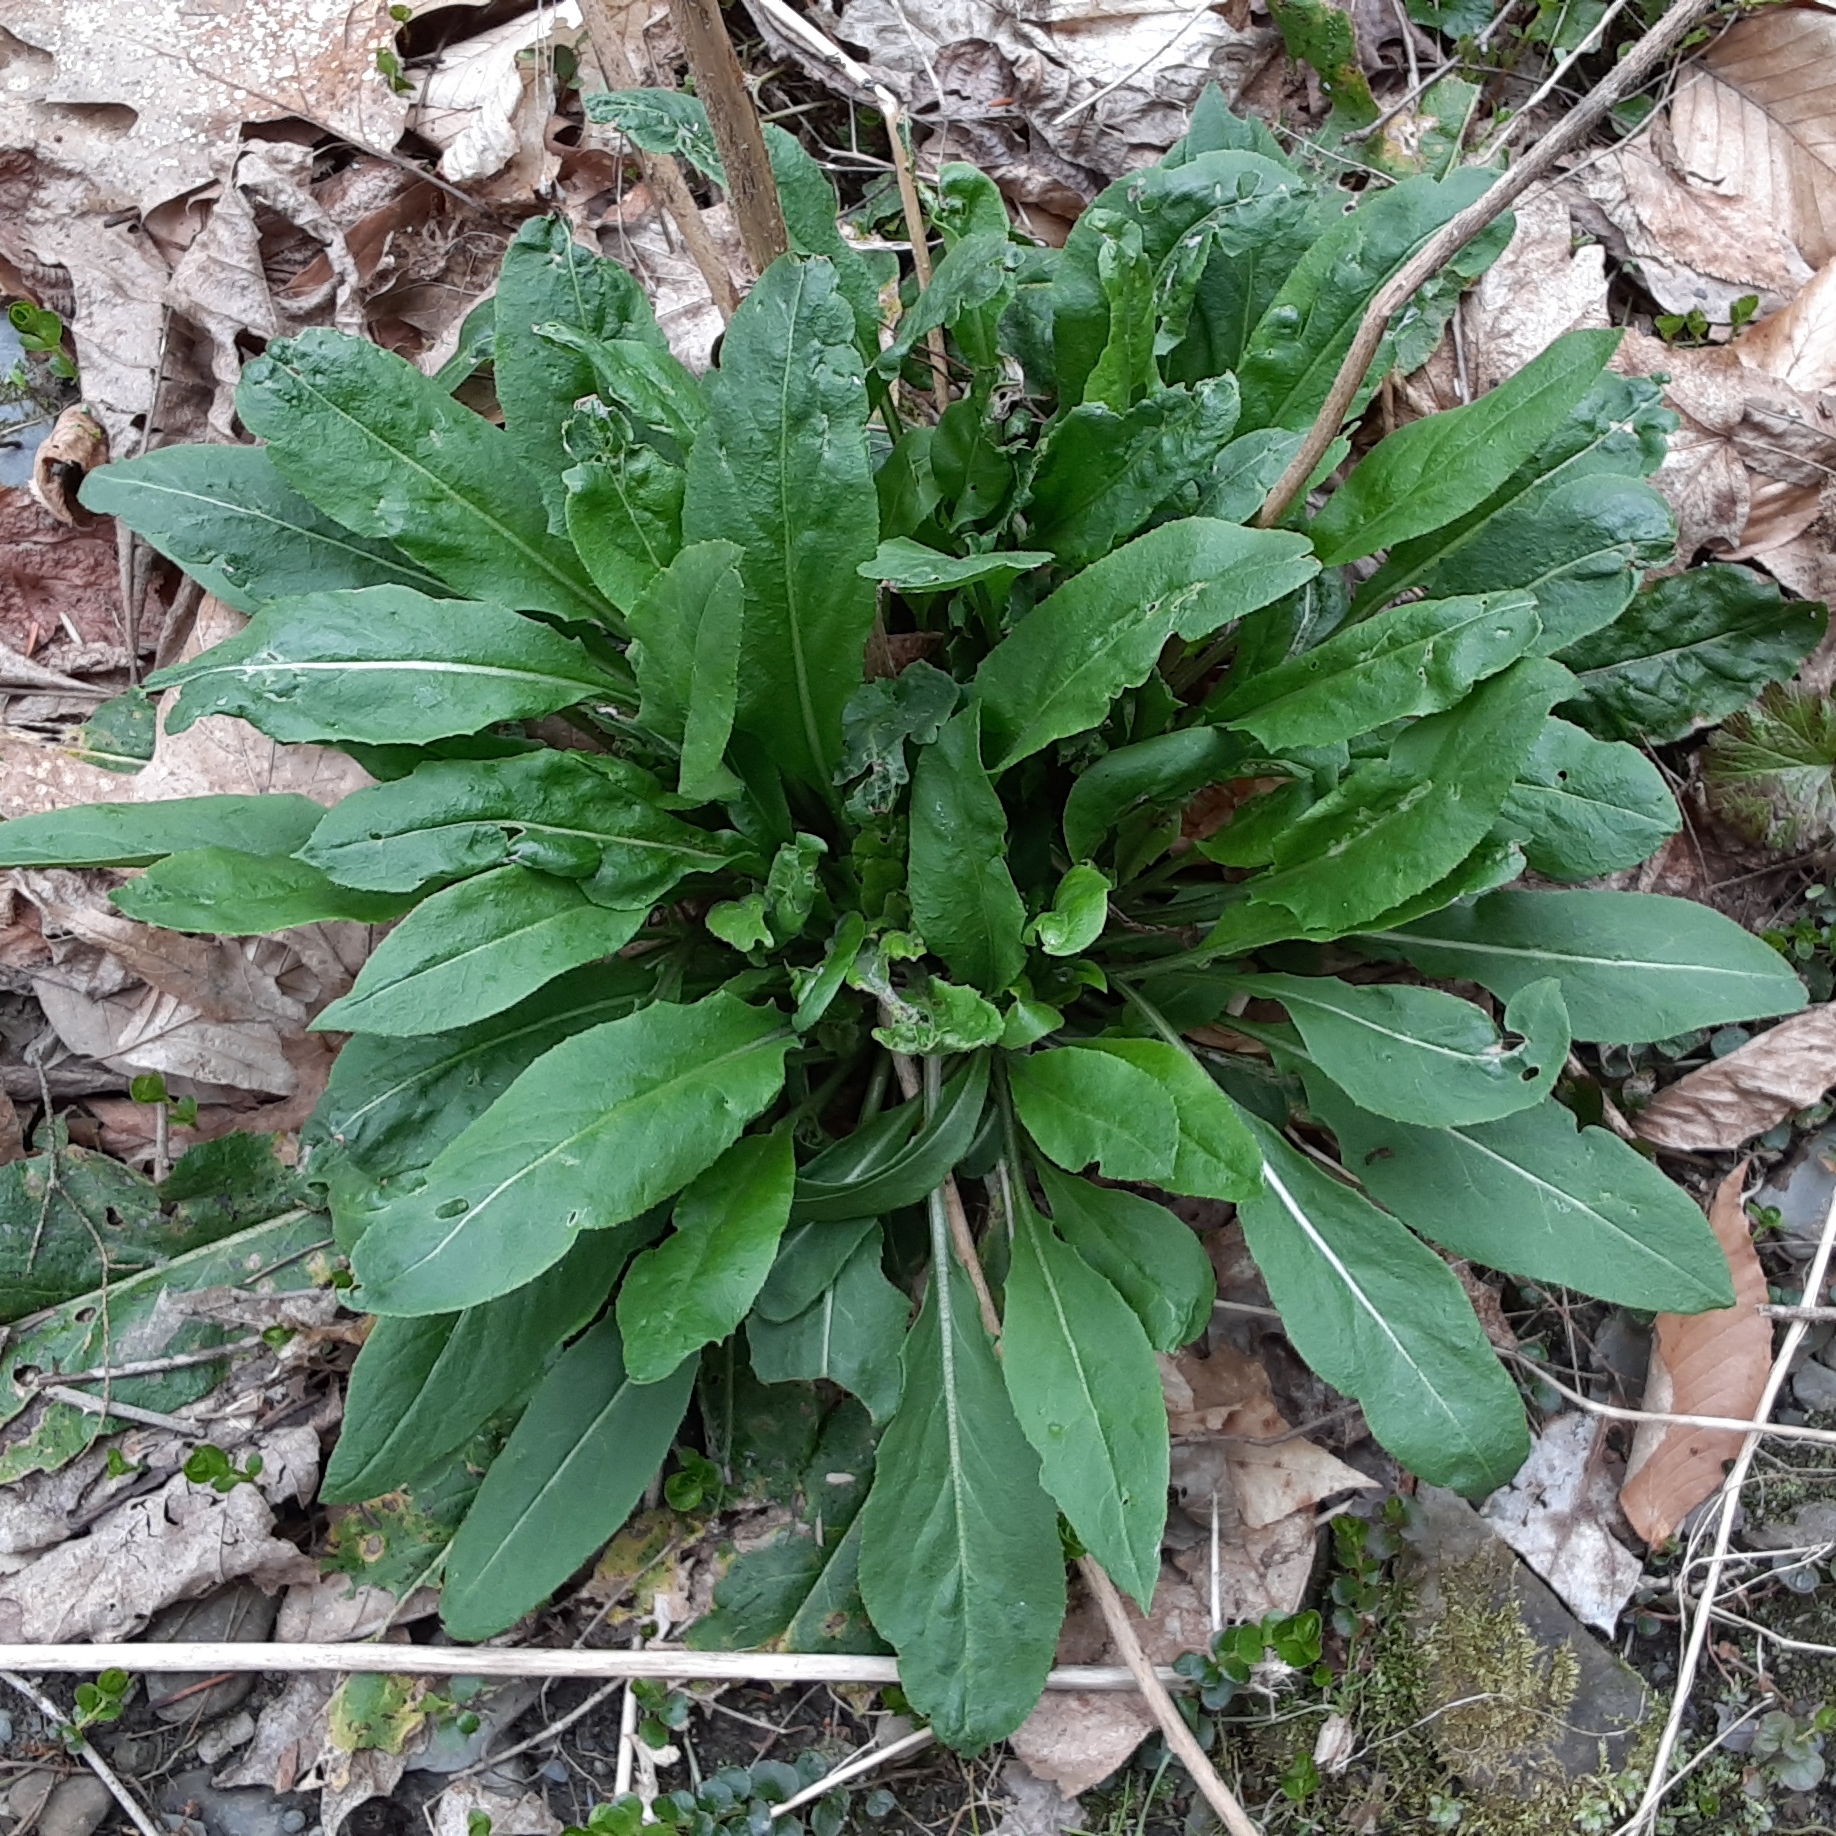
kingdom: Plantae
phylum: Tracheophyta
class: Magnoliopsida
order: Brassicales
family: Brassicaceae
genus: Hesperis
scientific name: Hesperis matronalis
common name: Dame's-violet
